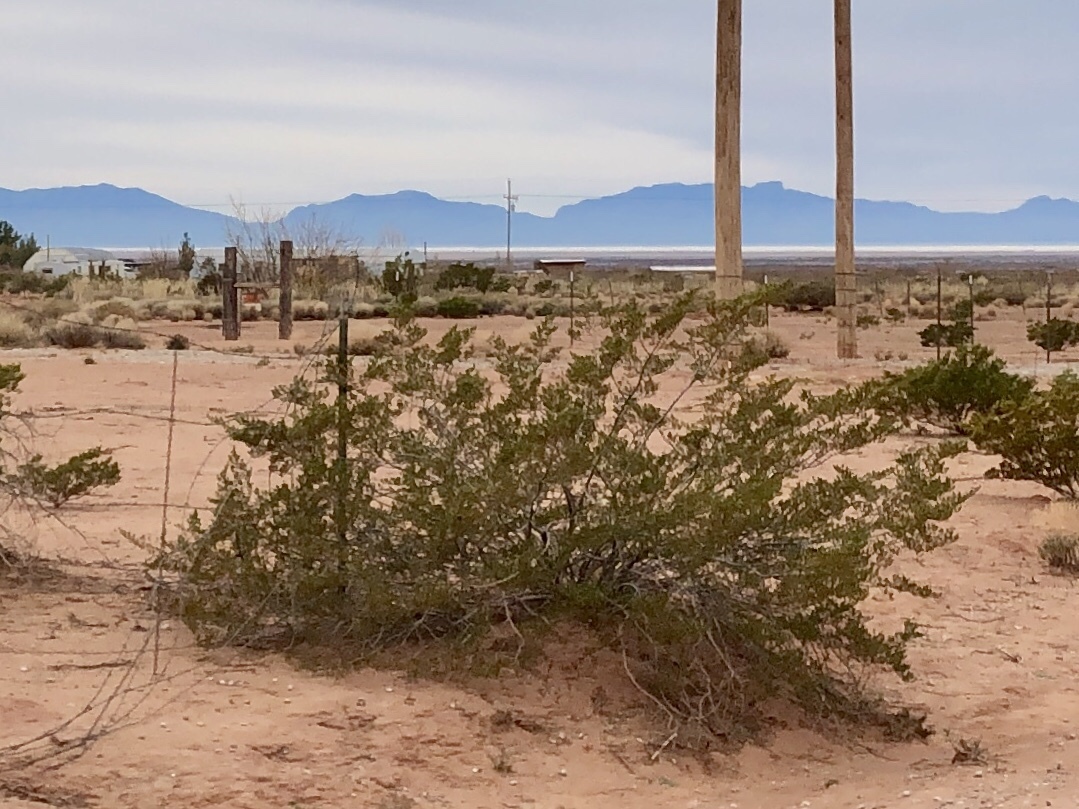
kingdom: Plantae
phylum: Tracheophyta
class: Magnoliopsida
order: Zygophyllales
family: Zygophyllaceae
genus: Larrea
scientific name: Larrea tridentata
